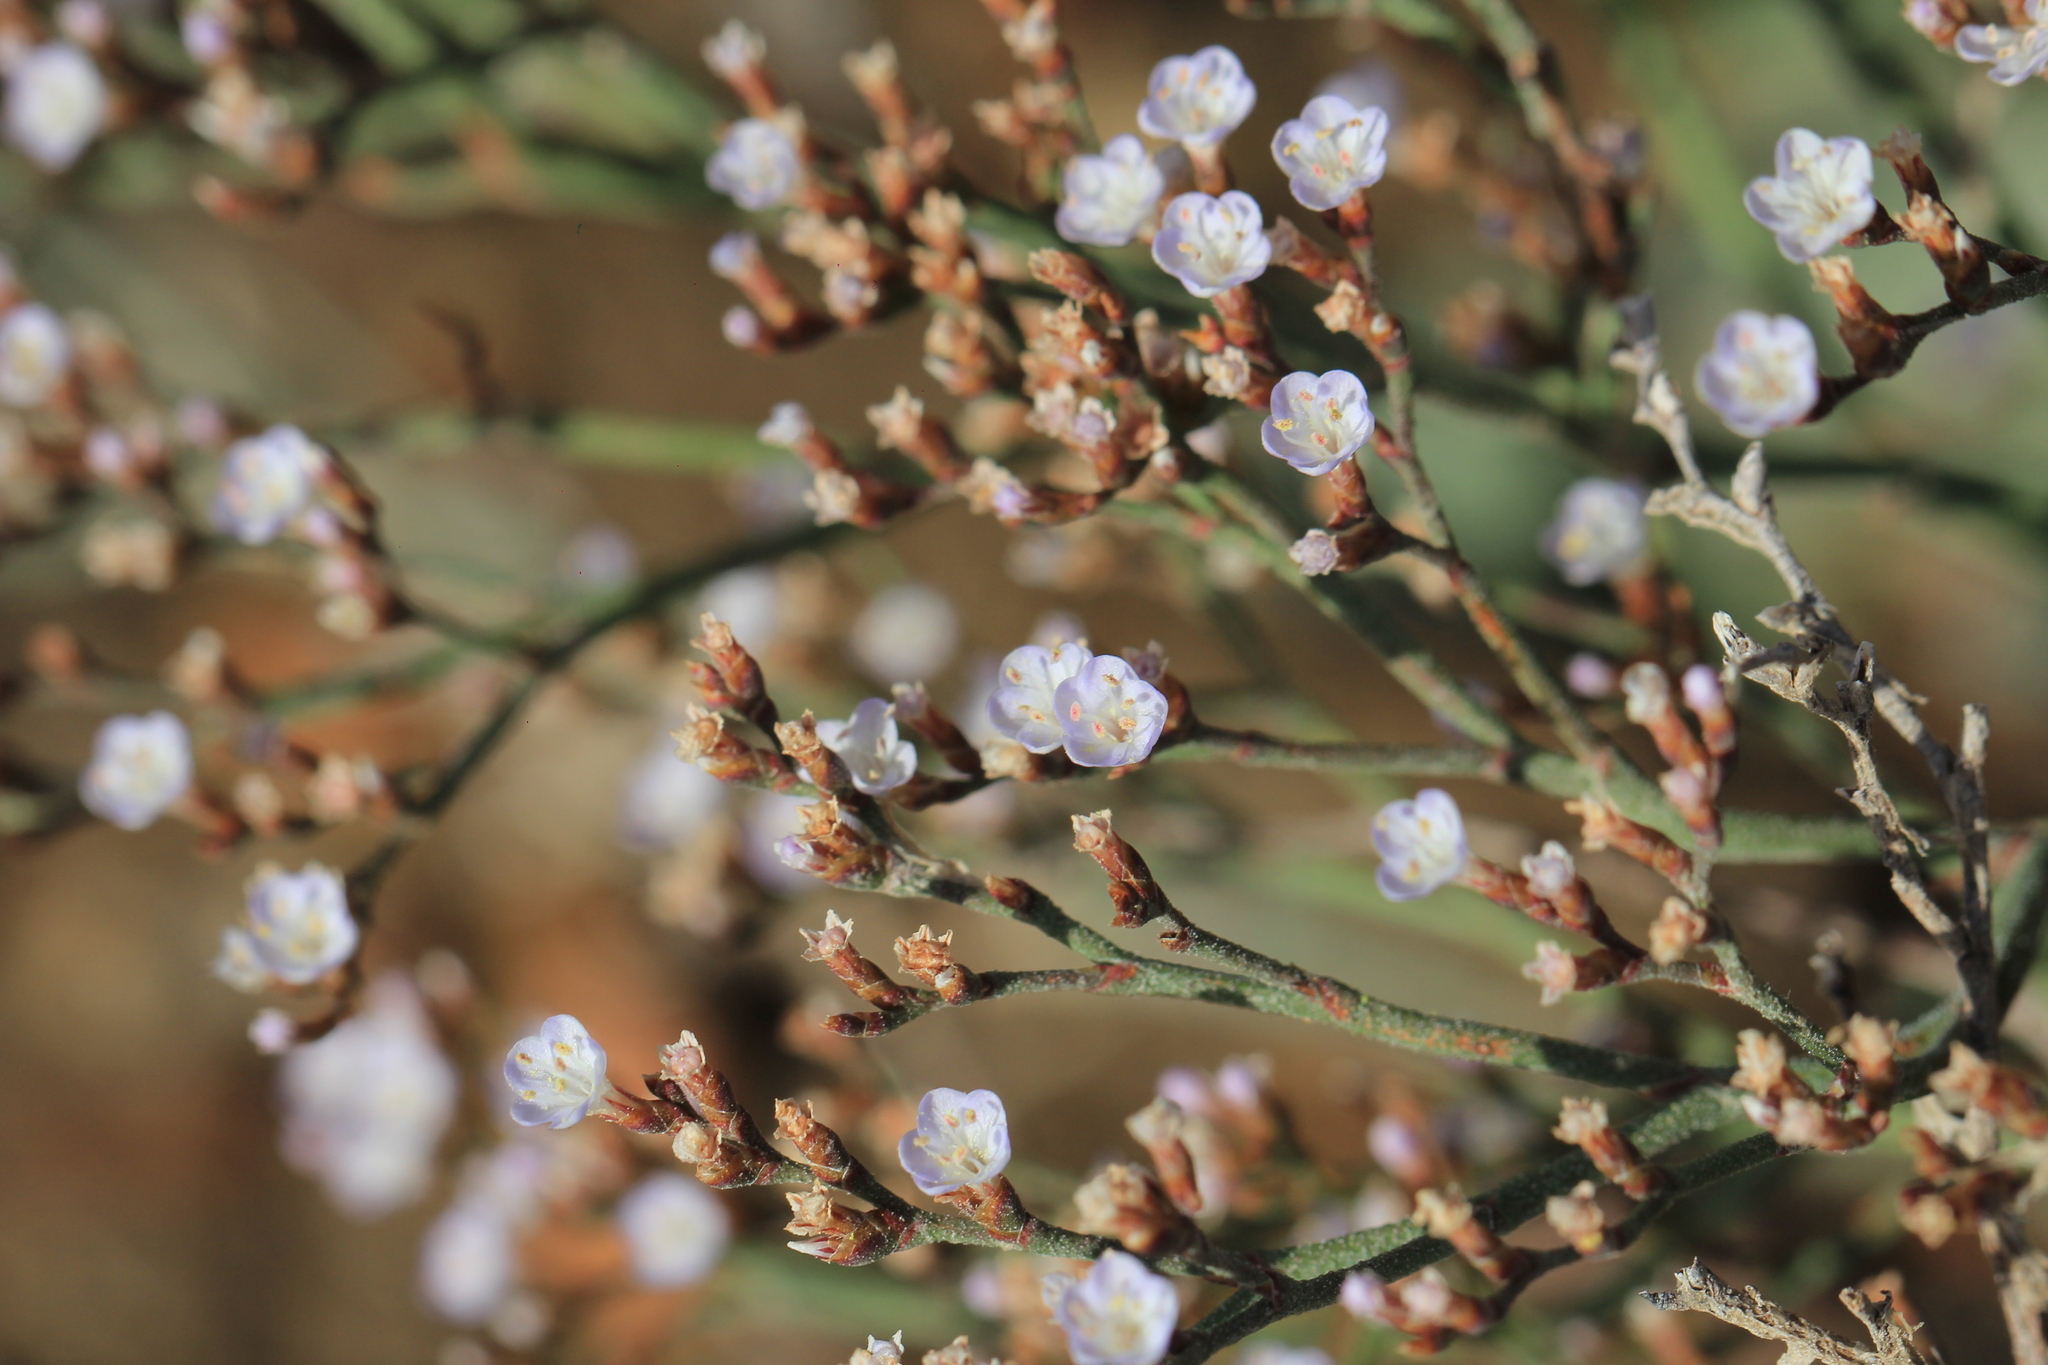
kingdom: Plantae
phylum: Tracheophyta
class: Magnoliopsida
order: Caryophyllales
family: Plumbaginaceae
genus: Limonium
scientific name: Limonium brasiliense
